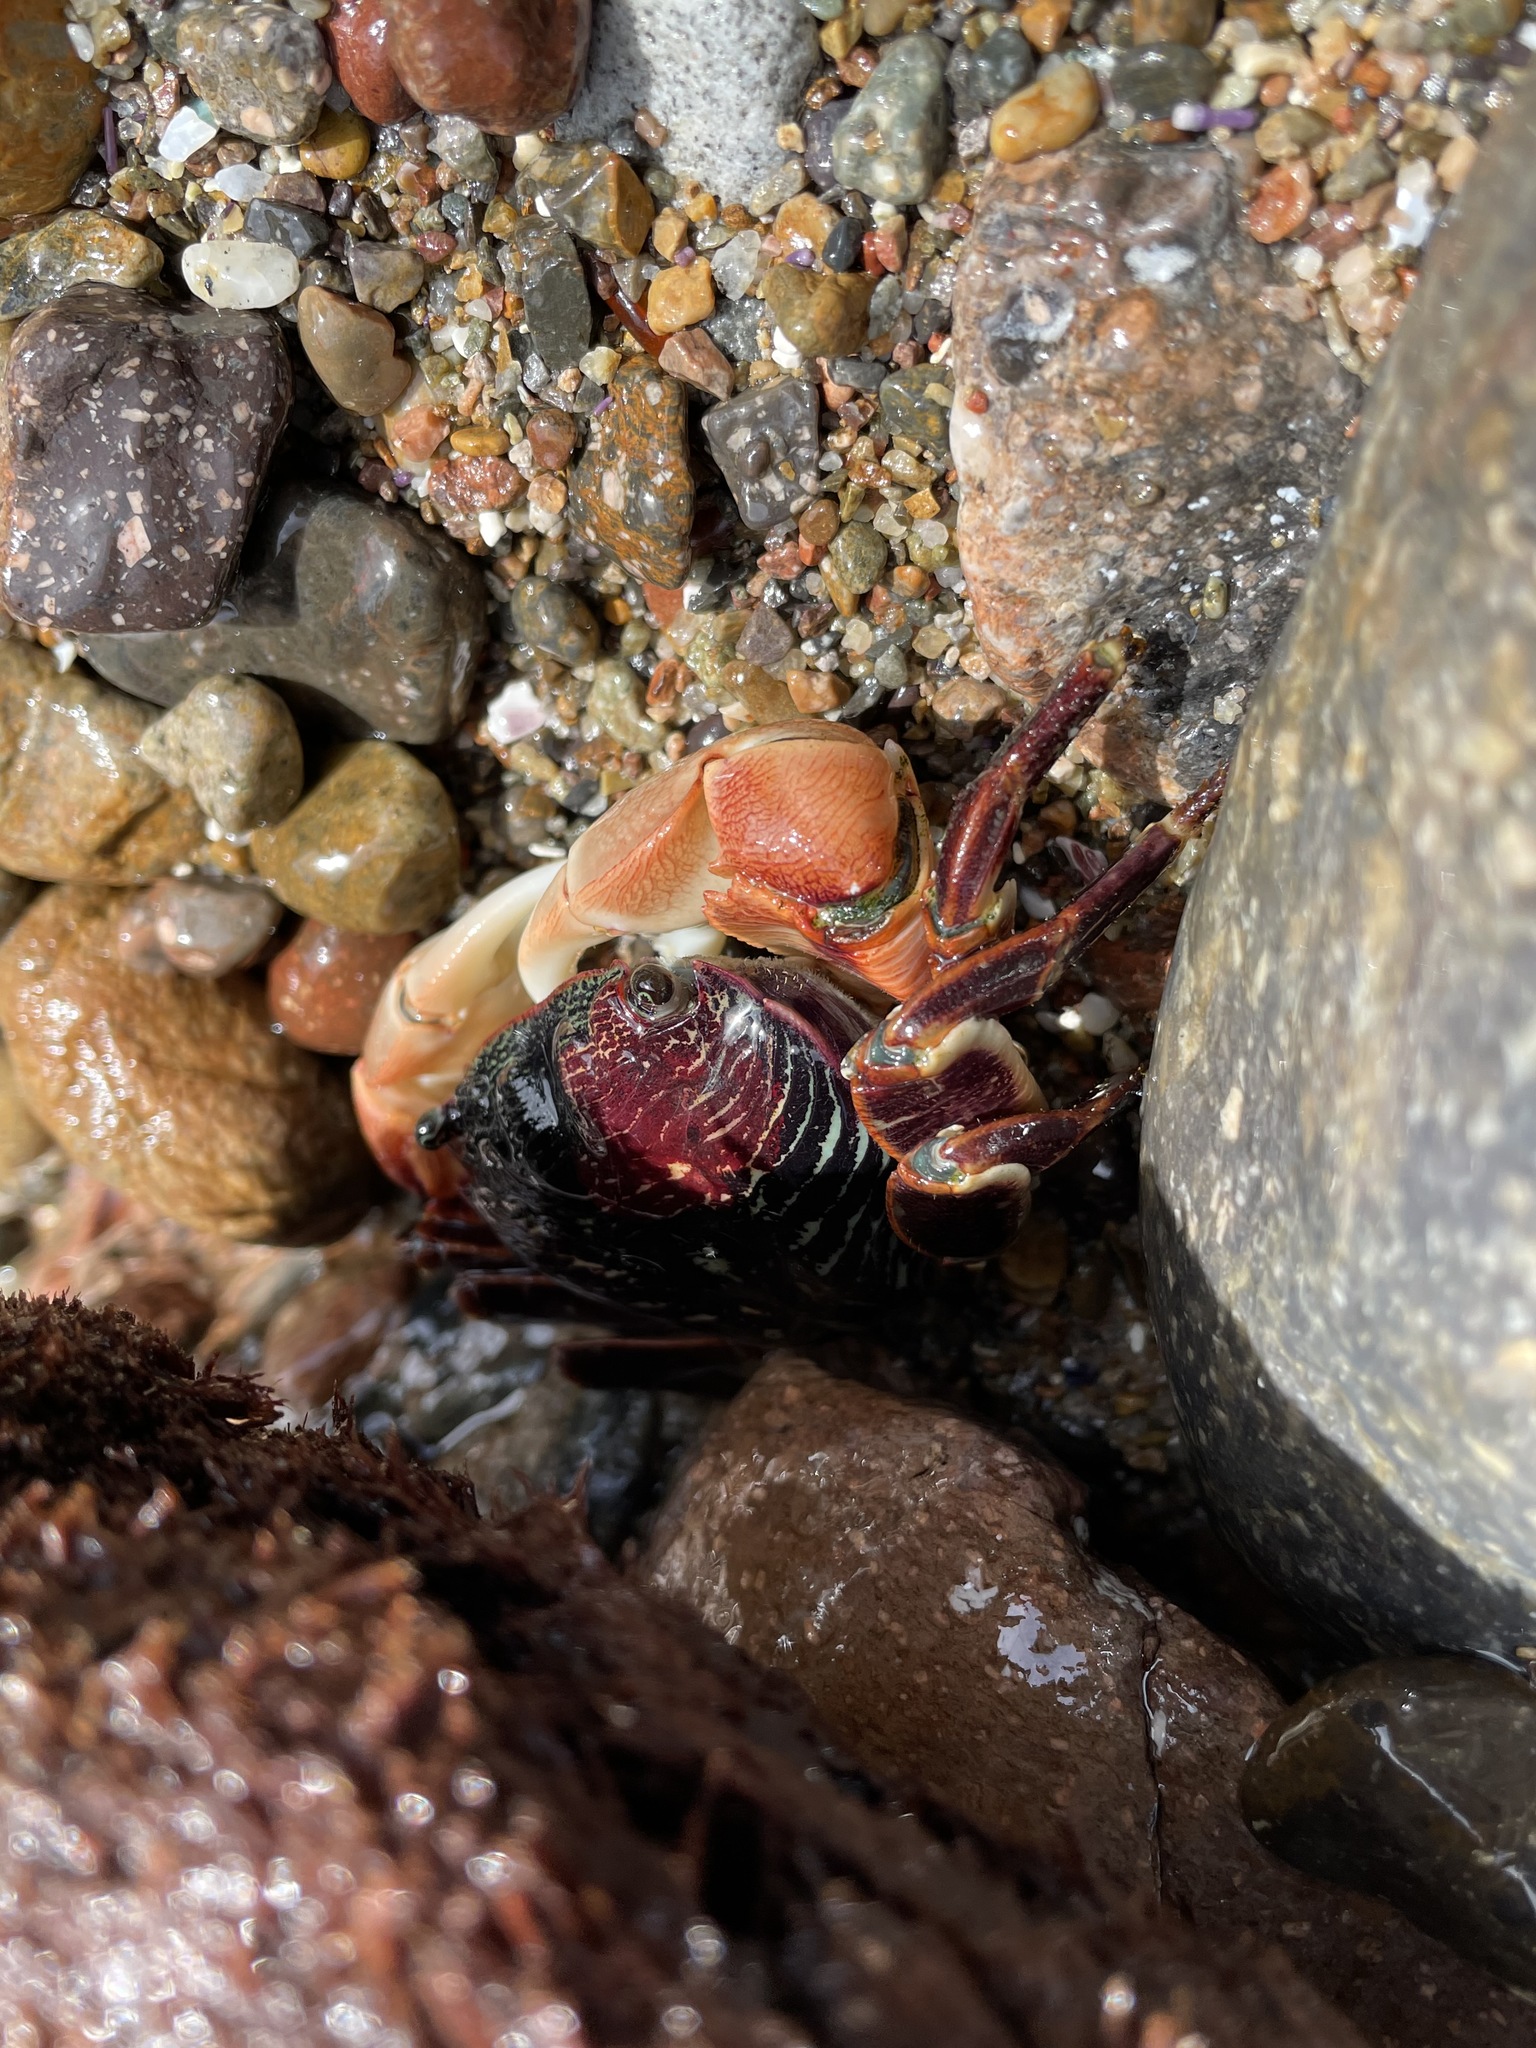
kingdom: Animalia
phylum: Arthropoda
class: Malacostraca
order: Decapoda
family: Grapsidae
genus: Pachygrapsus
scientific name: Pachygrapsus crassipes
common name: Striped shore crab
